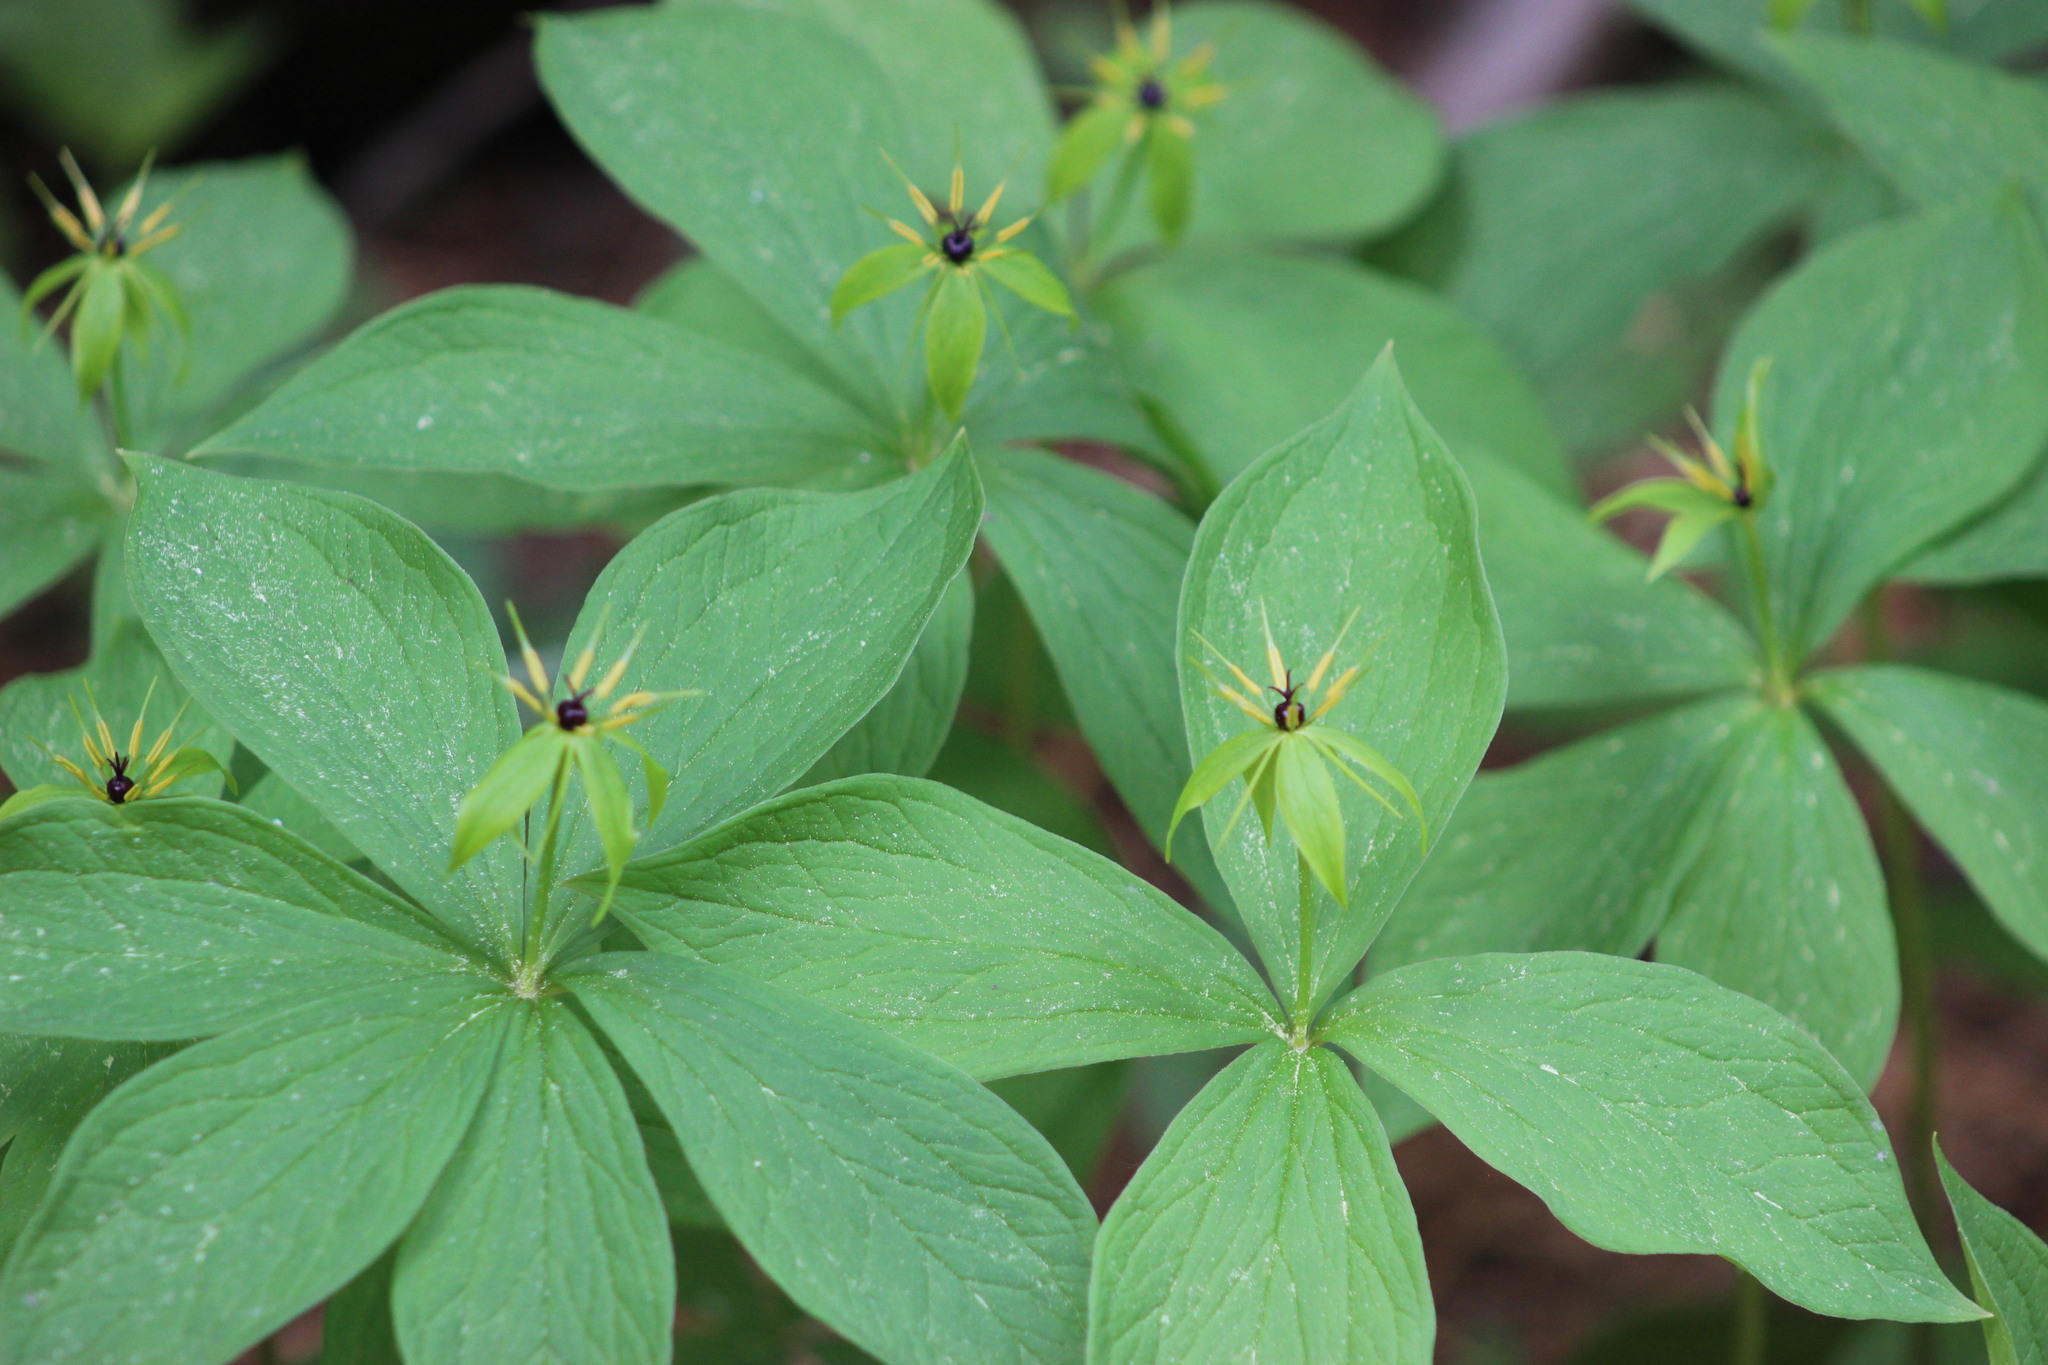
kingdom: Plantae
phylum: Tracheophyta
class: Liliopsida
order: Liliales
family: Melanthiaceae
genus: Paris
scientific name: Paris quadrifolia
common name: Herb-paris
